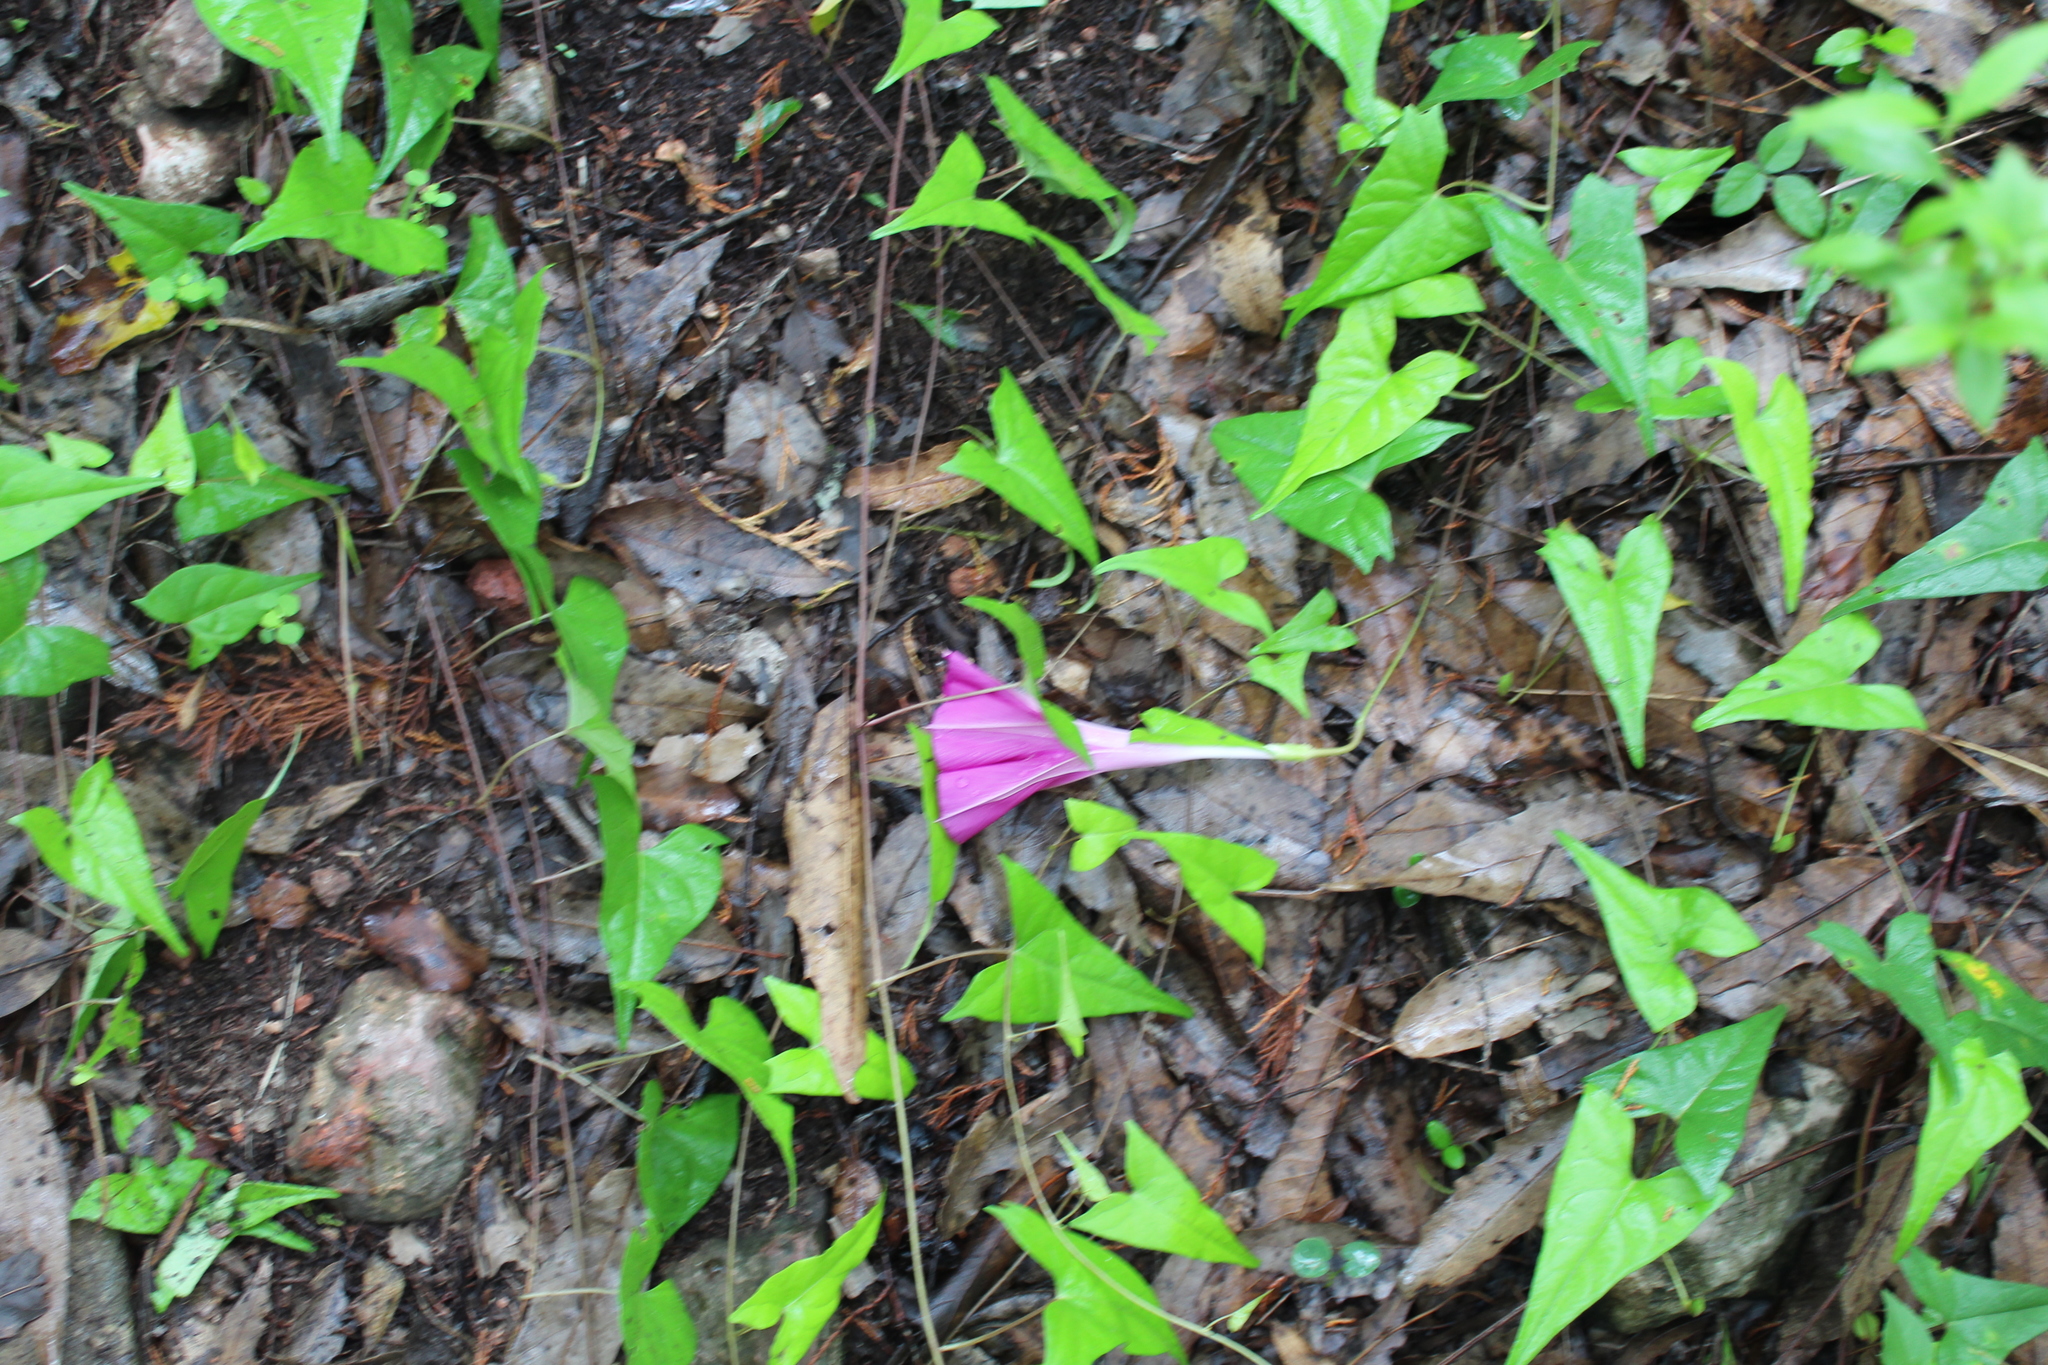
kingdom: Plantae
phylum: Tracheophyta
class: Magnoliopsida
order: Solanales
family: Convolvulaceae
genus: Ipomoea
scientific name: Ipomoea elongata
